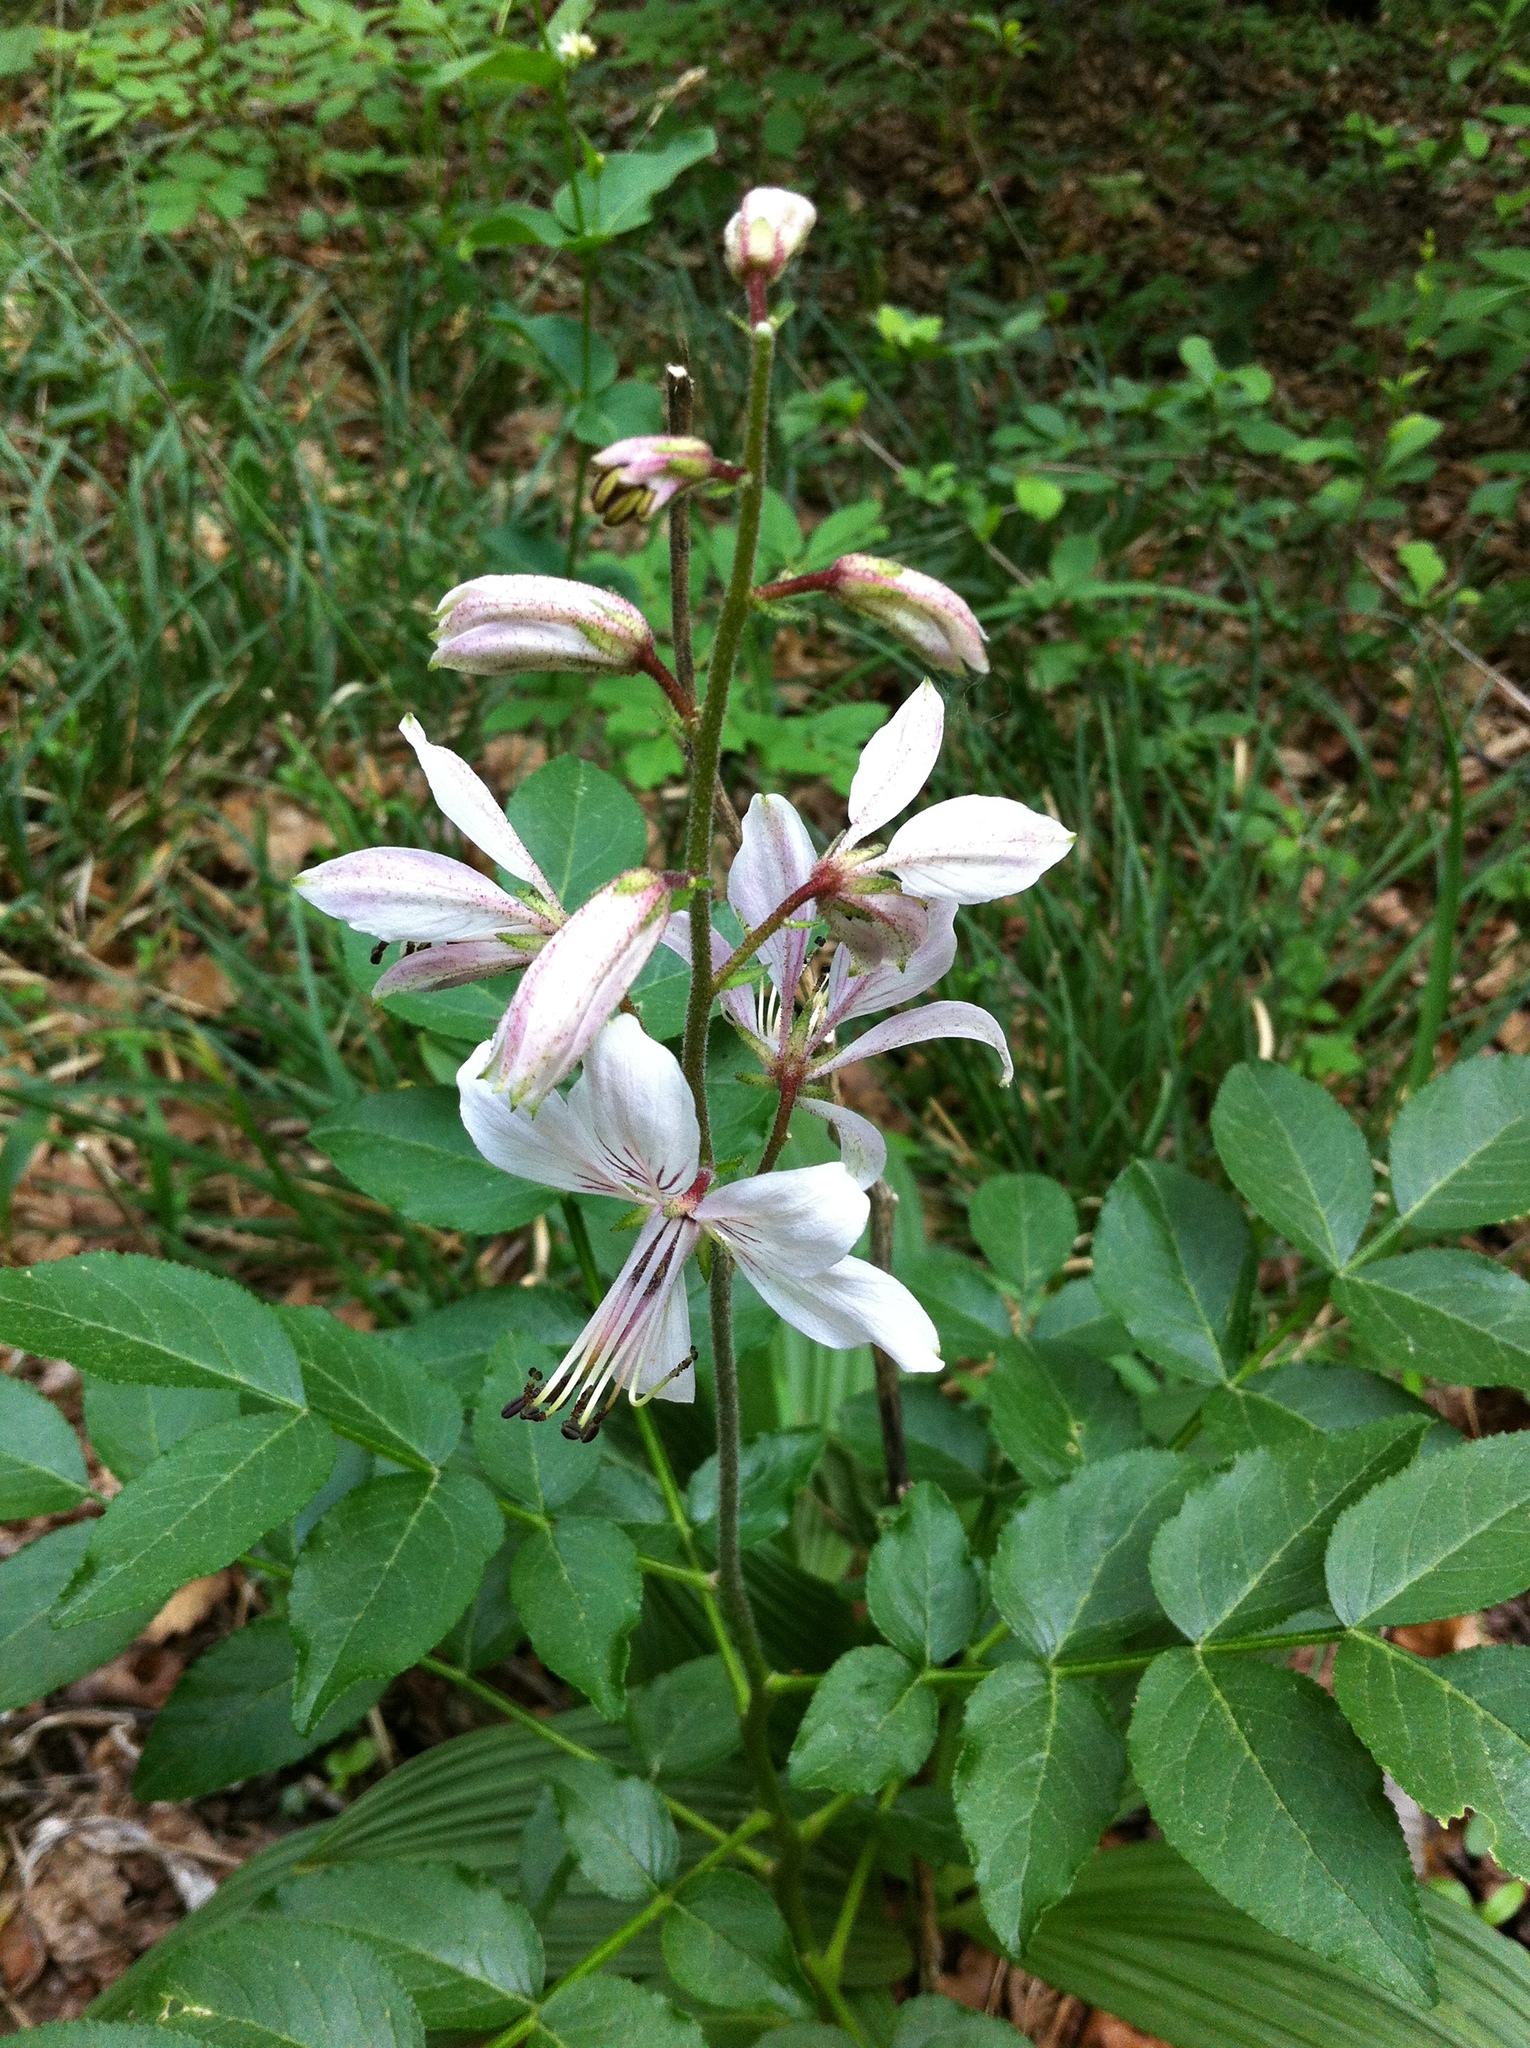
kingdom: Plantae
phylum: Tracheophyta
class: Magnoliopsida
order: Sapindales
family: Rutaceae
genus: Dictamnus
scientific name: Dictamnus albus
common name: Gasplant
